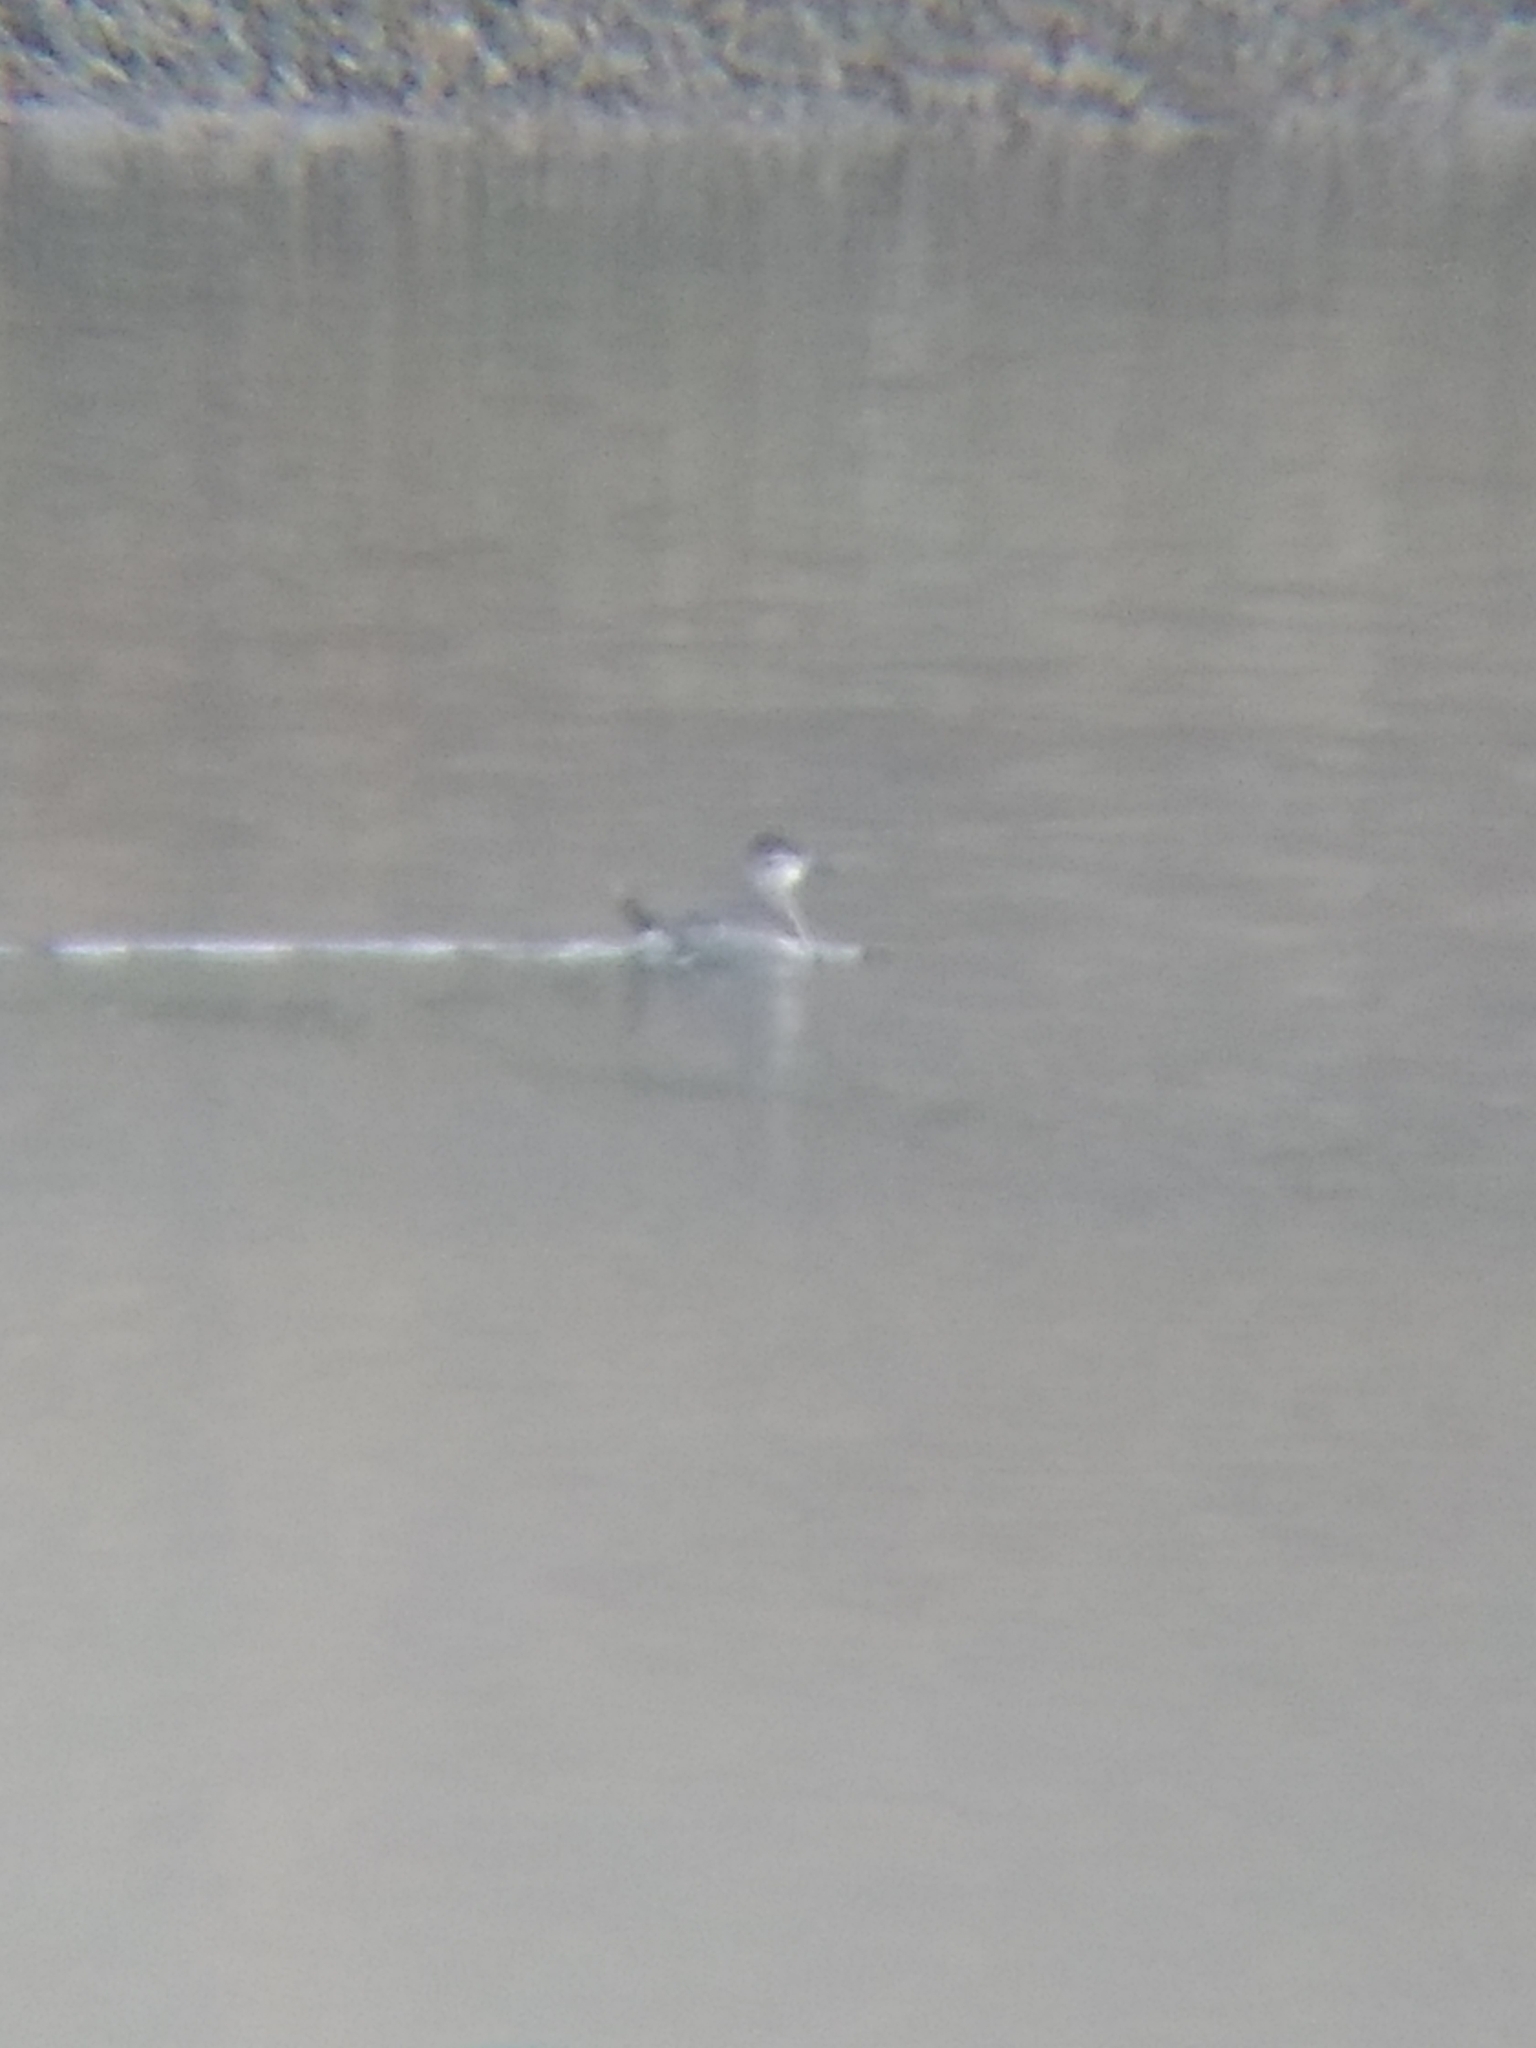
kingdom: Animalia
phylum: Chordata
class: Aves
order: Anseriformes
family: Anatidae
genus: Oxyura
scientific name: Oxyura jamaicensis
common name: Ruddy duck
